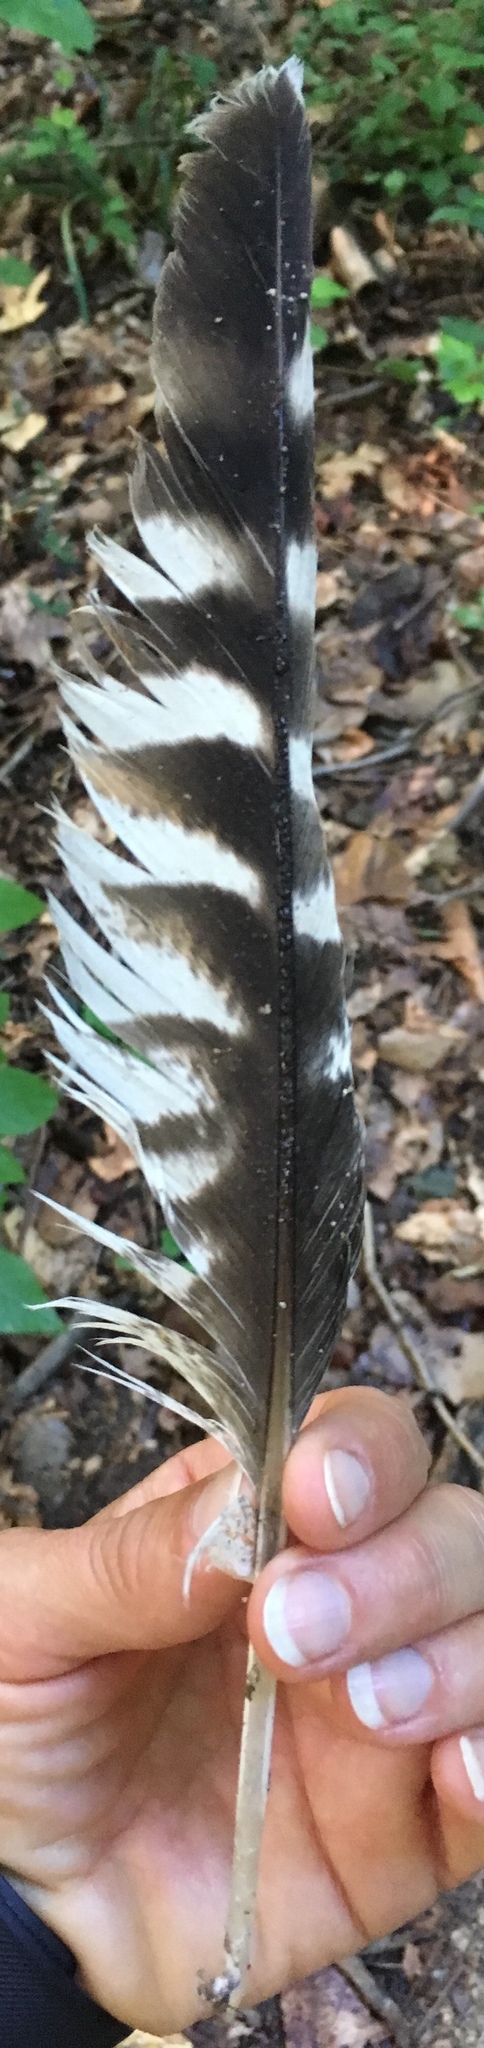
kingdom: Animalia
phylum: Chordata
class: Aves
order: Accipitriformes
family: Accipitridae
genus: Buteo
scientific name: Buteo lineatus
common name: Red-shouldered hawk
